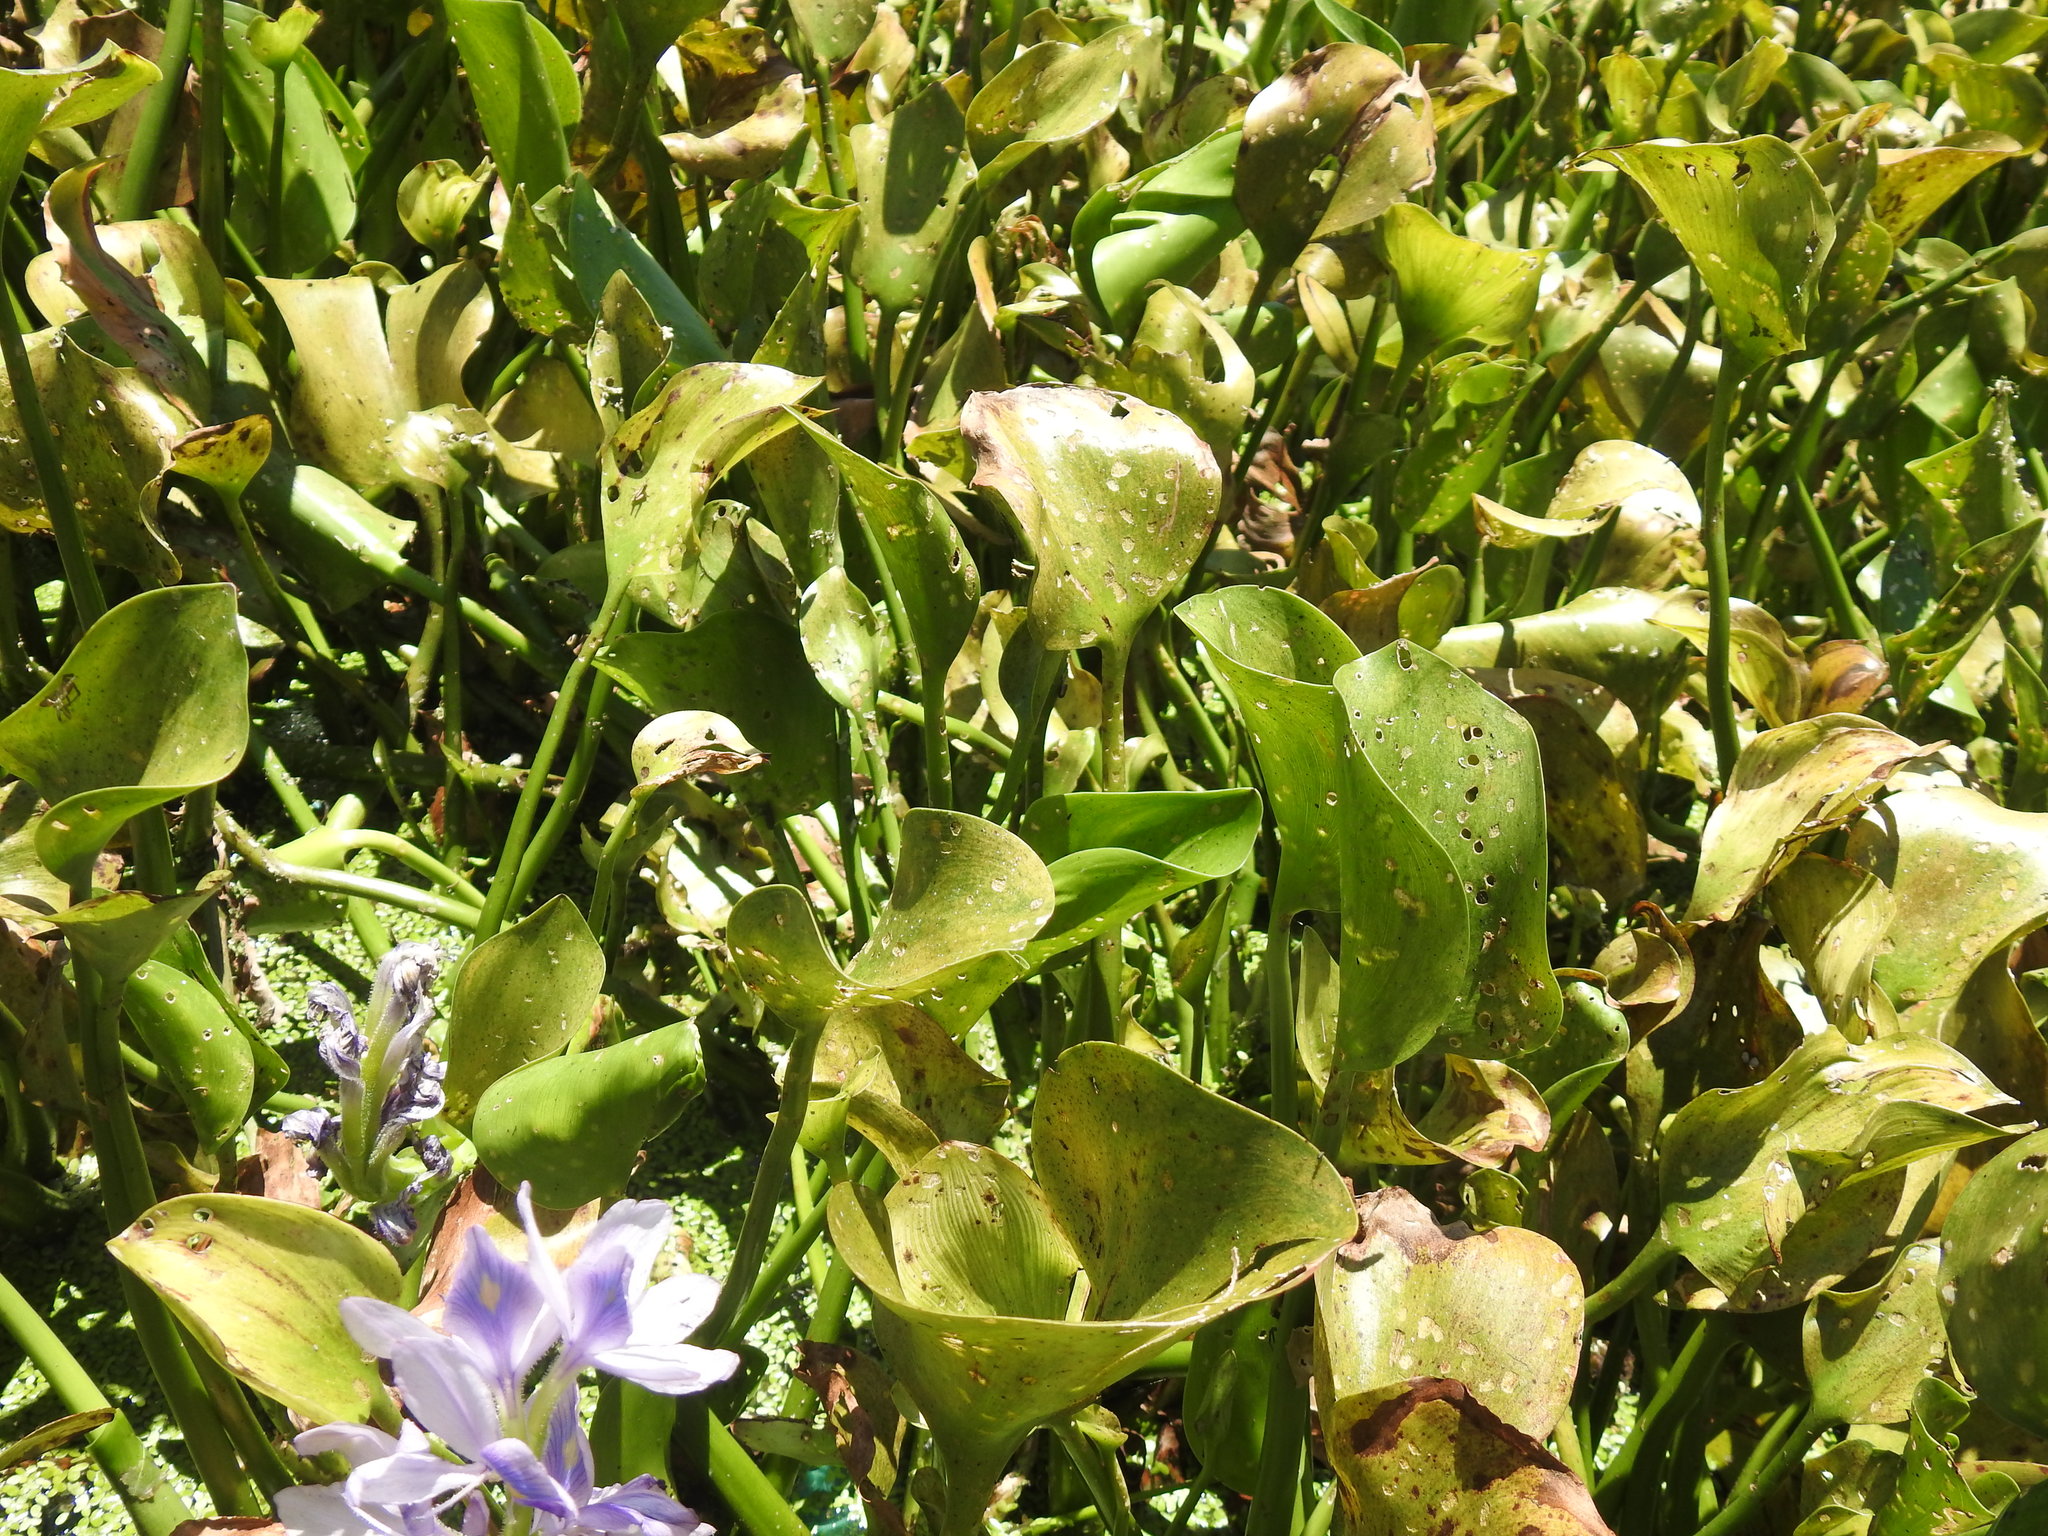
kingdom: Plantae
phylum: Tracheophyta
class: Liliopsida
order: Commelinales
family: Pontederiaceae
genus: Pontederia
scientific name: Pontederia crassipes
